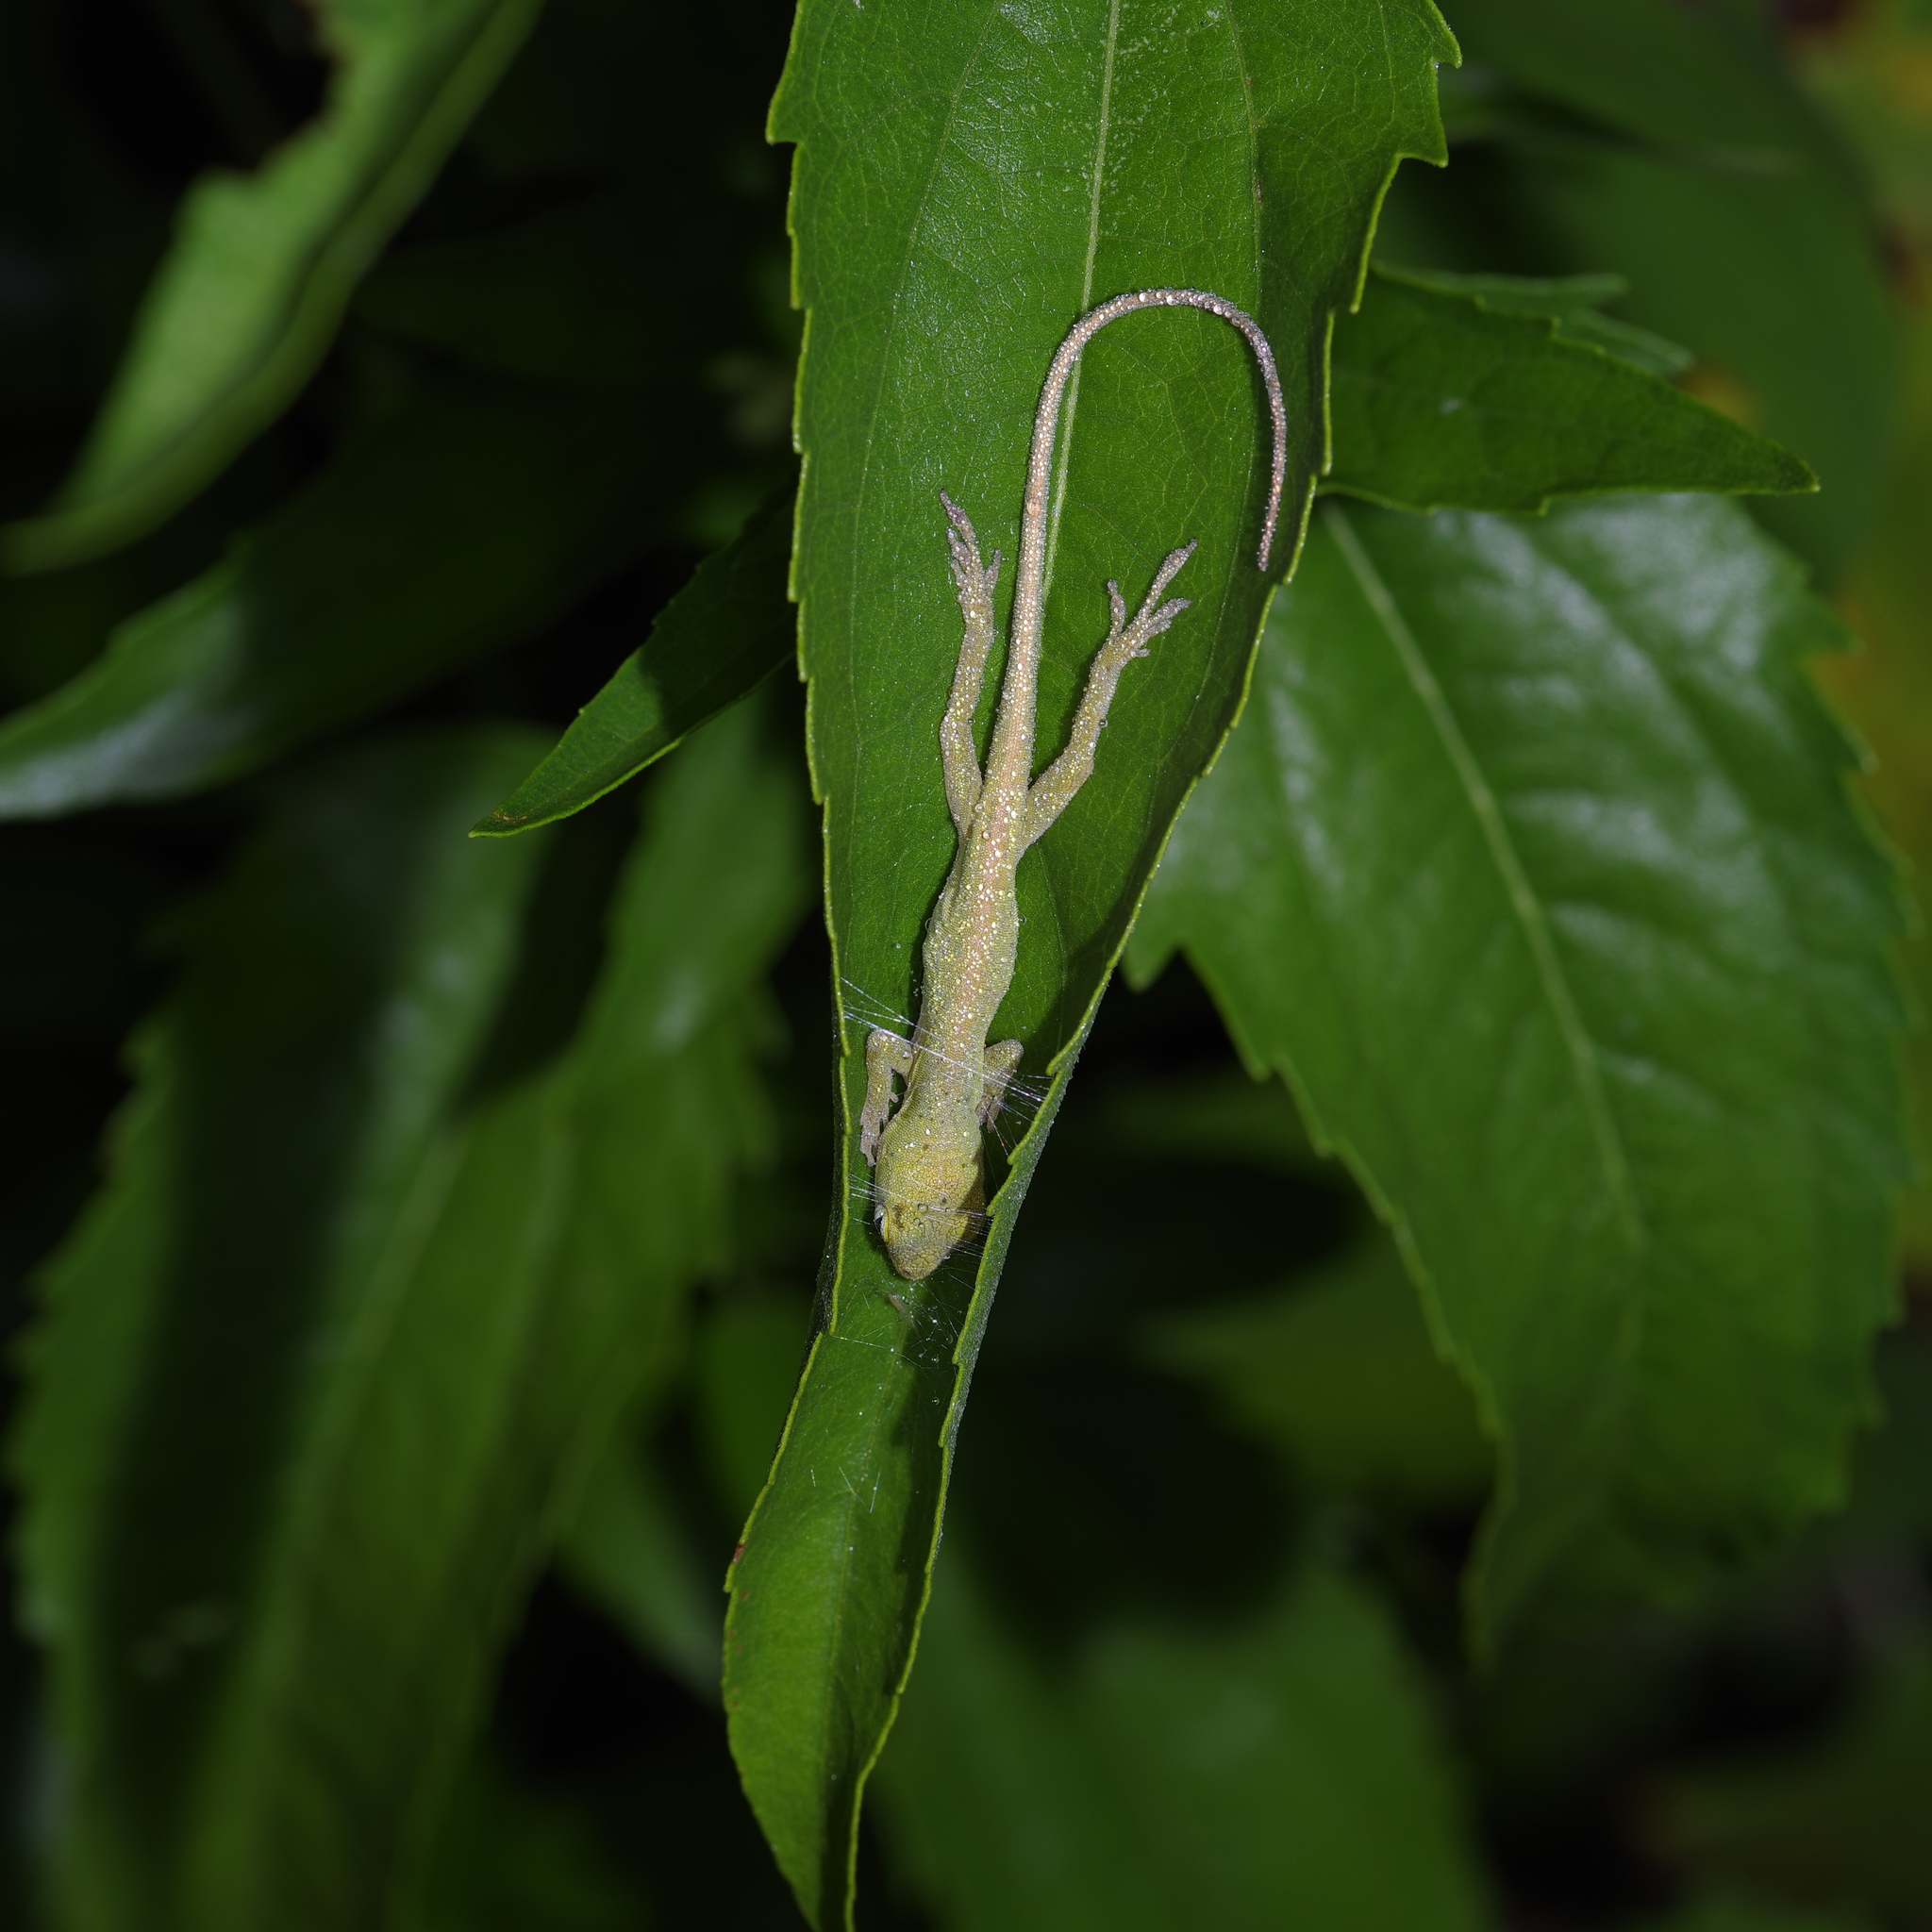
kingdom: Animalia
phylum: Chordata
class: Squamata
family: Dactyloidae
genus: Anolis
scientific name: Anolis carolinensis
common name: Green anole
